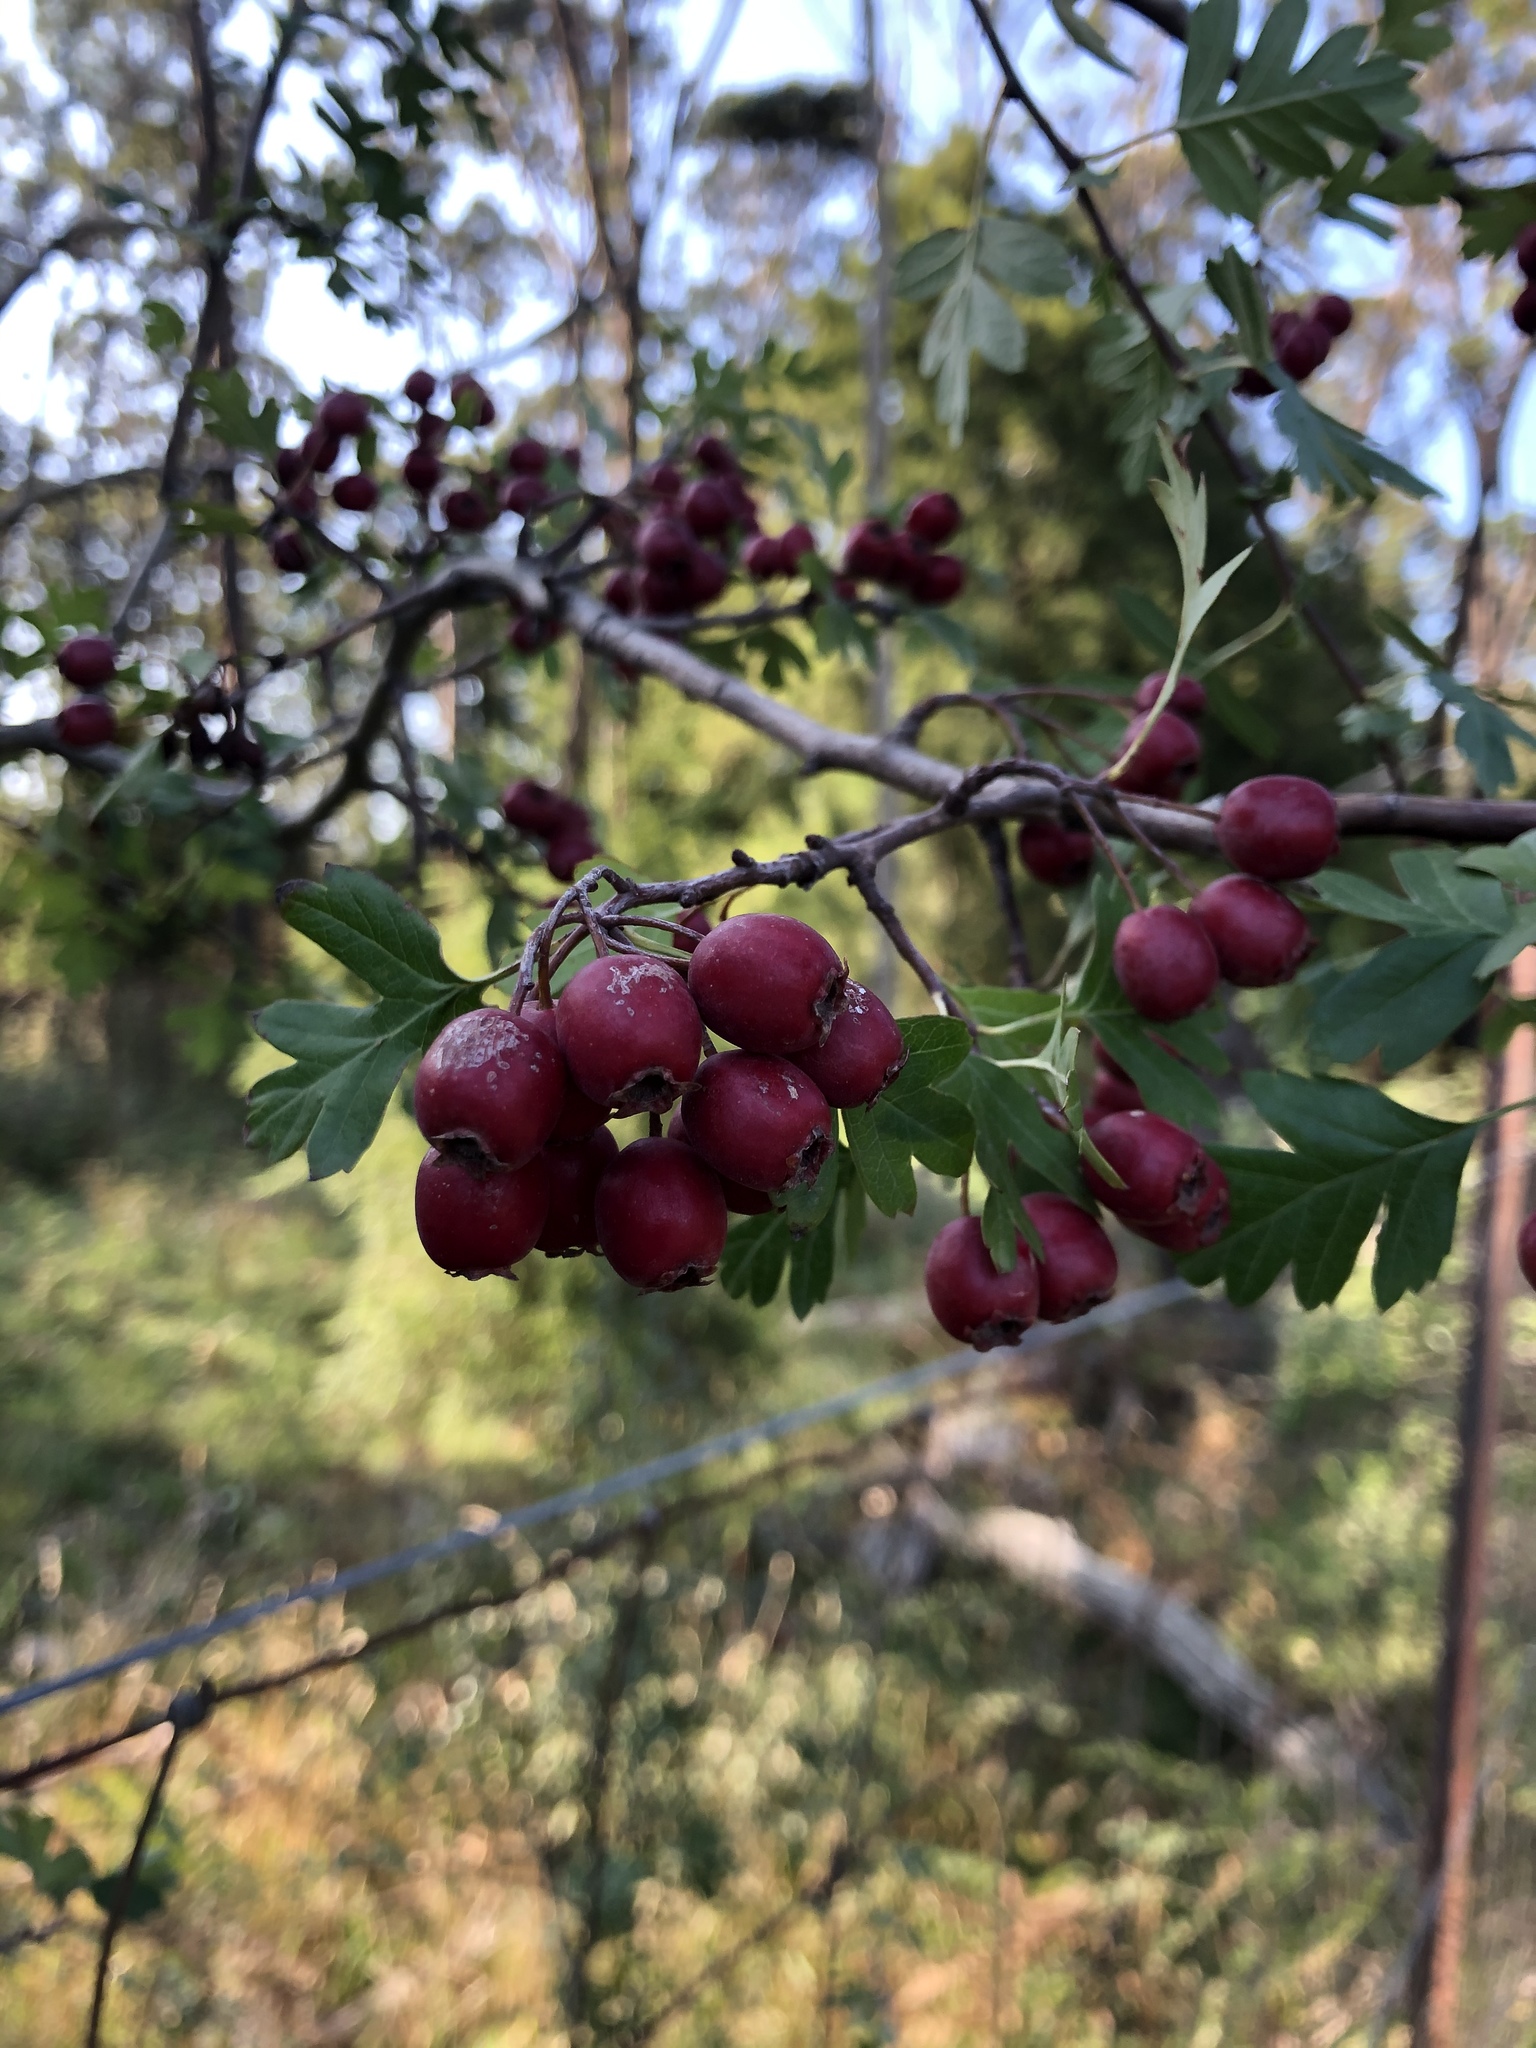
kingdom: Plantae
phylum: Tracheophyta
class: Magnoliopsida
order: Rosales
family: Rosaceae
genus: Crataegus
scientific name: Crataegus monogyna
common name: Hawthorn
